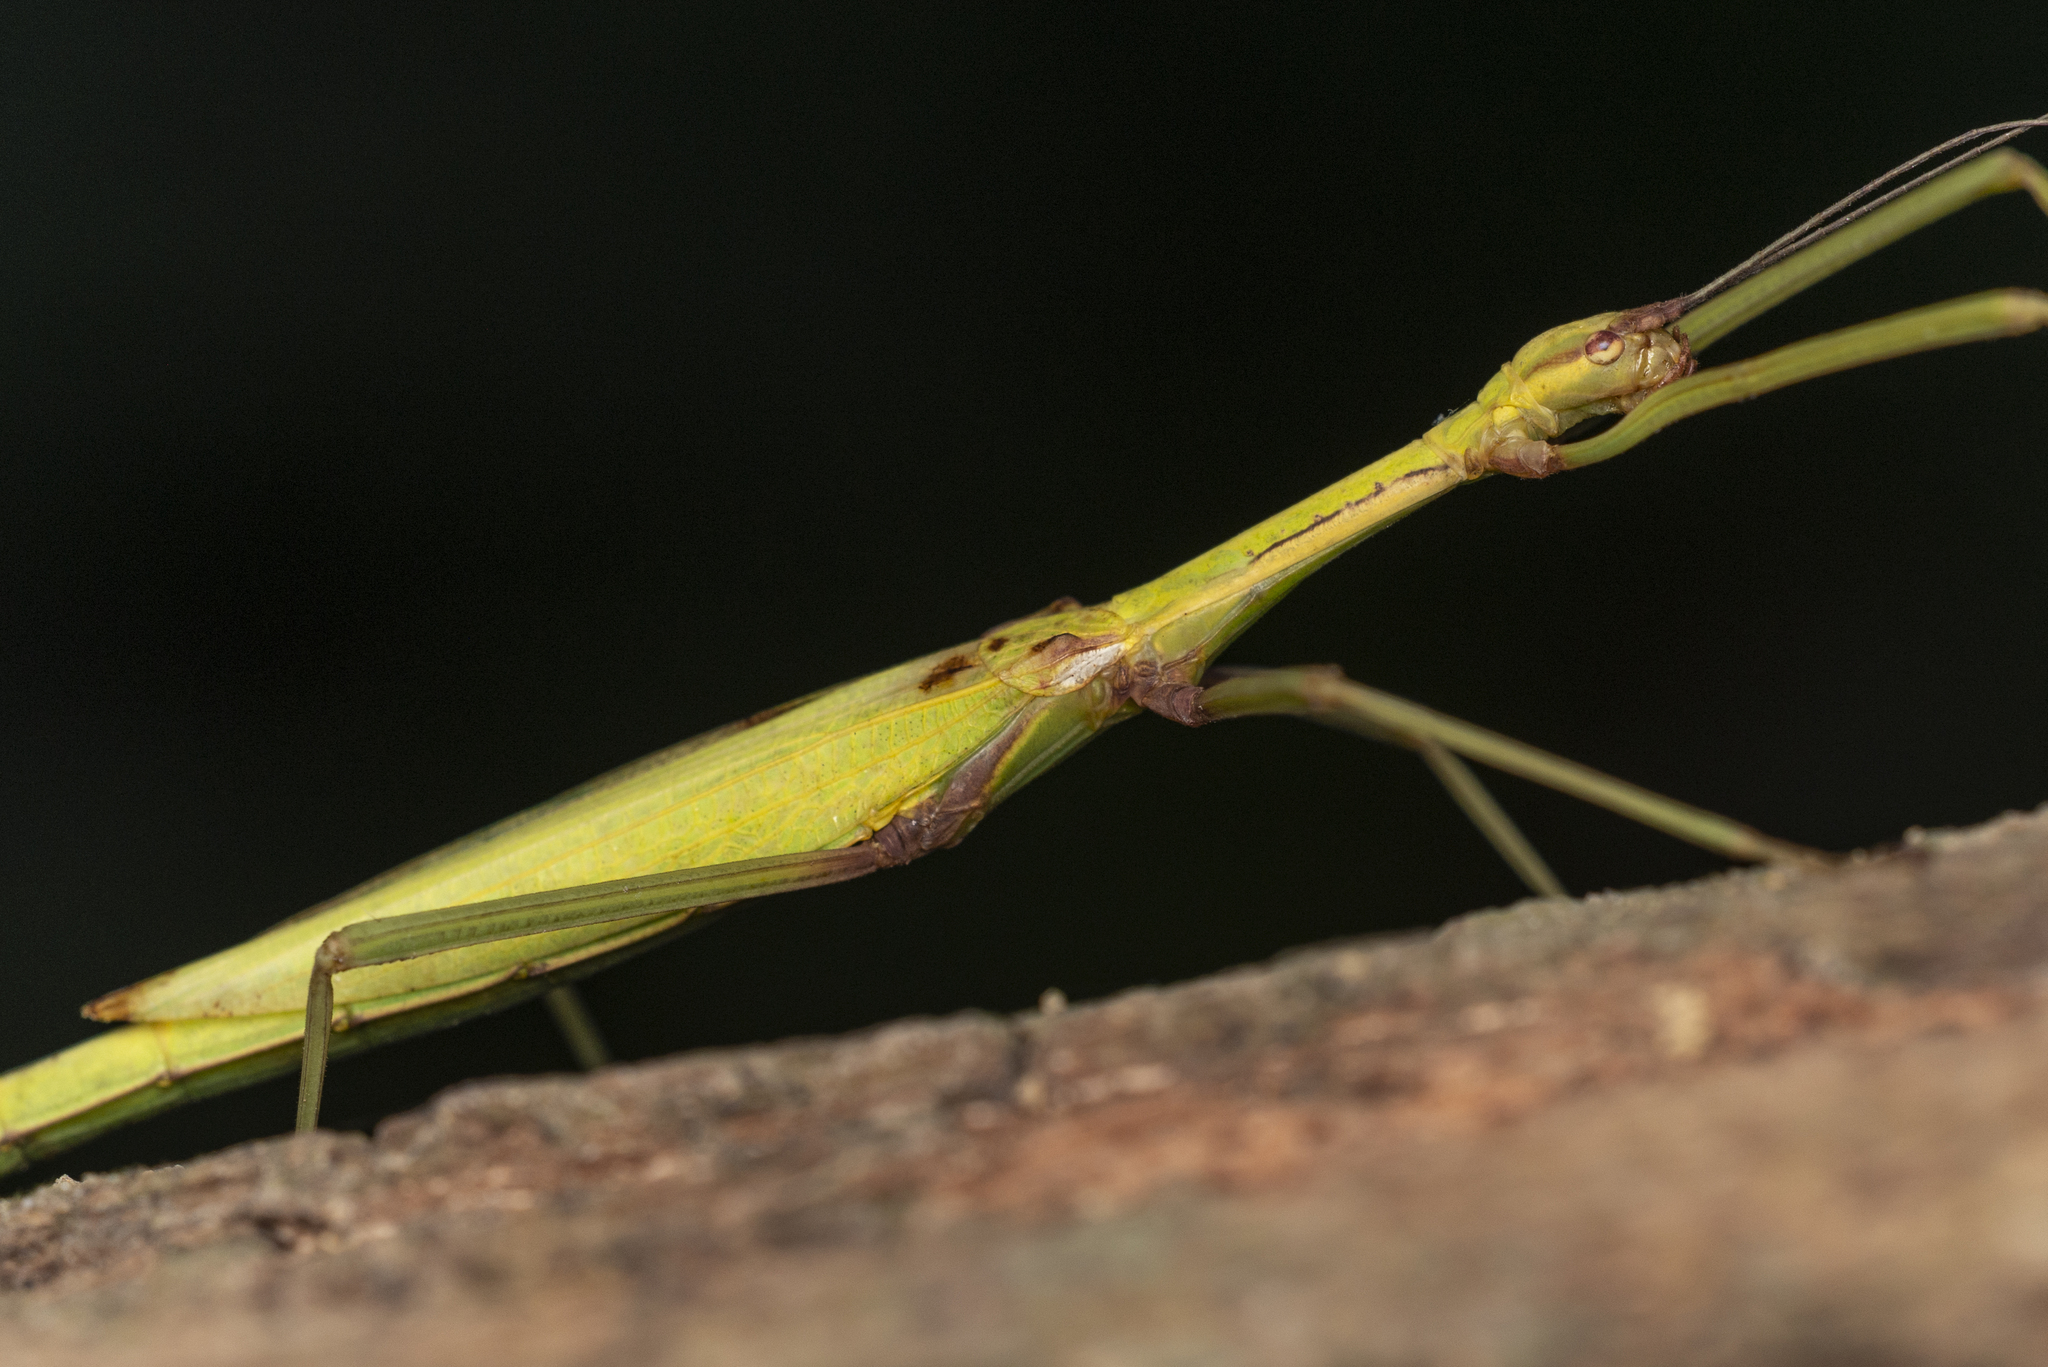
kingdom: Animalia
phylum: Arthropoda
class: Insecta
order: Phasmida
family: Lonchodidae
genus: Huananphasma
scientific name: Huananphasma amicum
